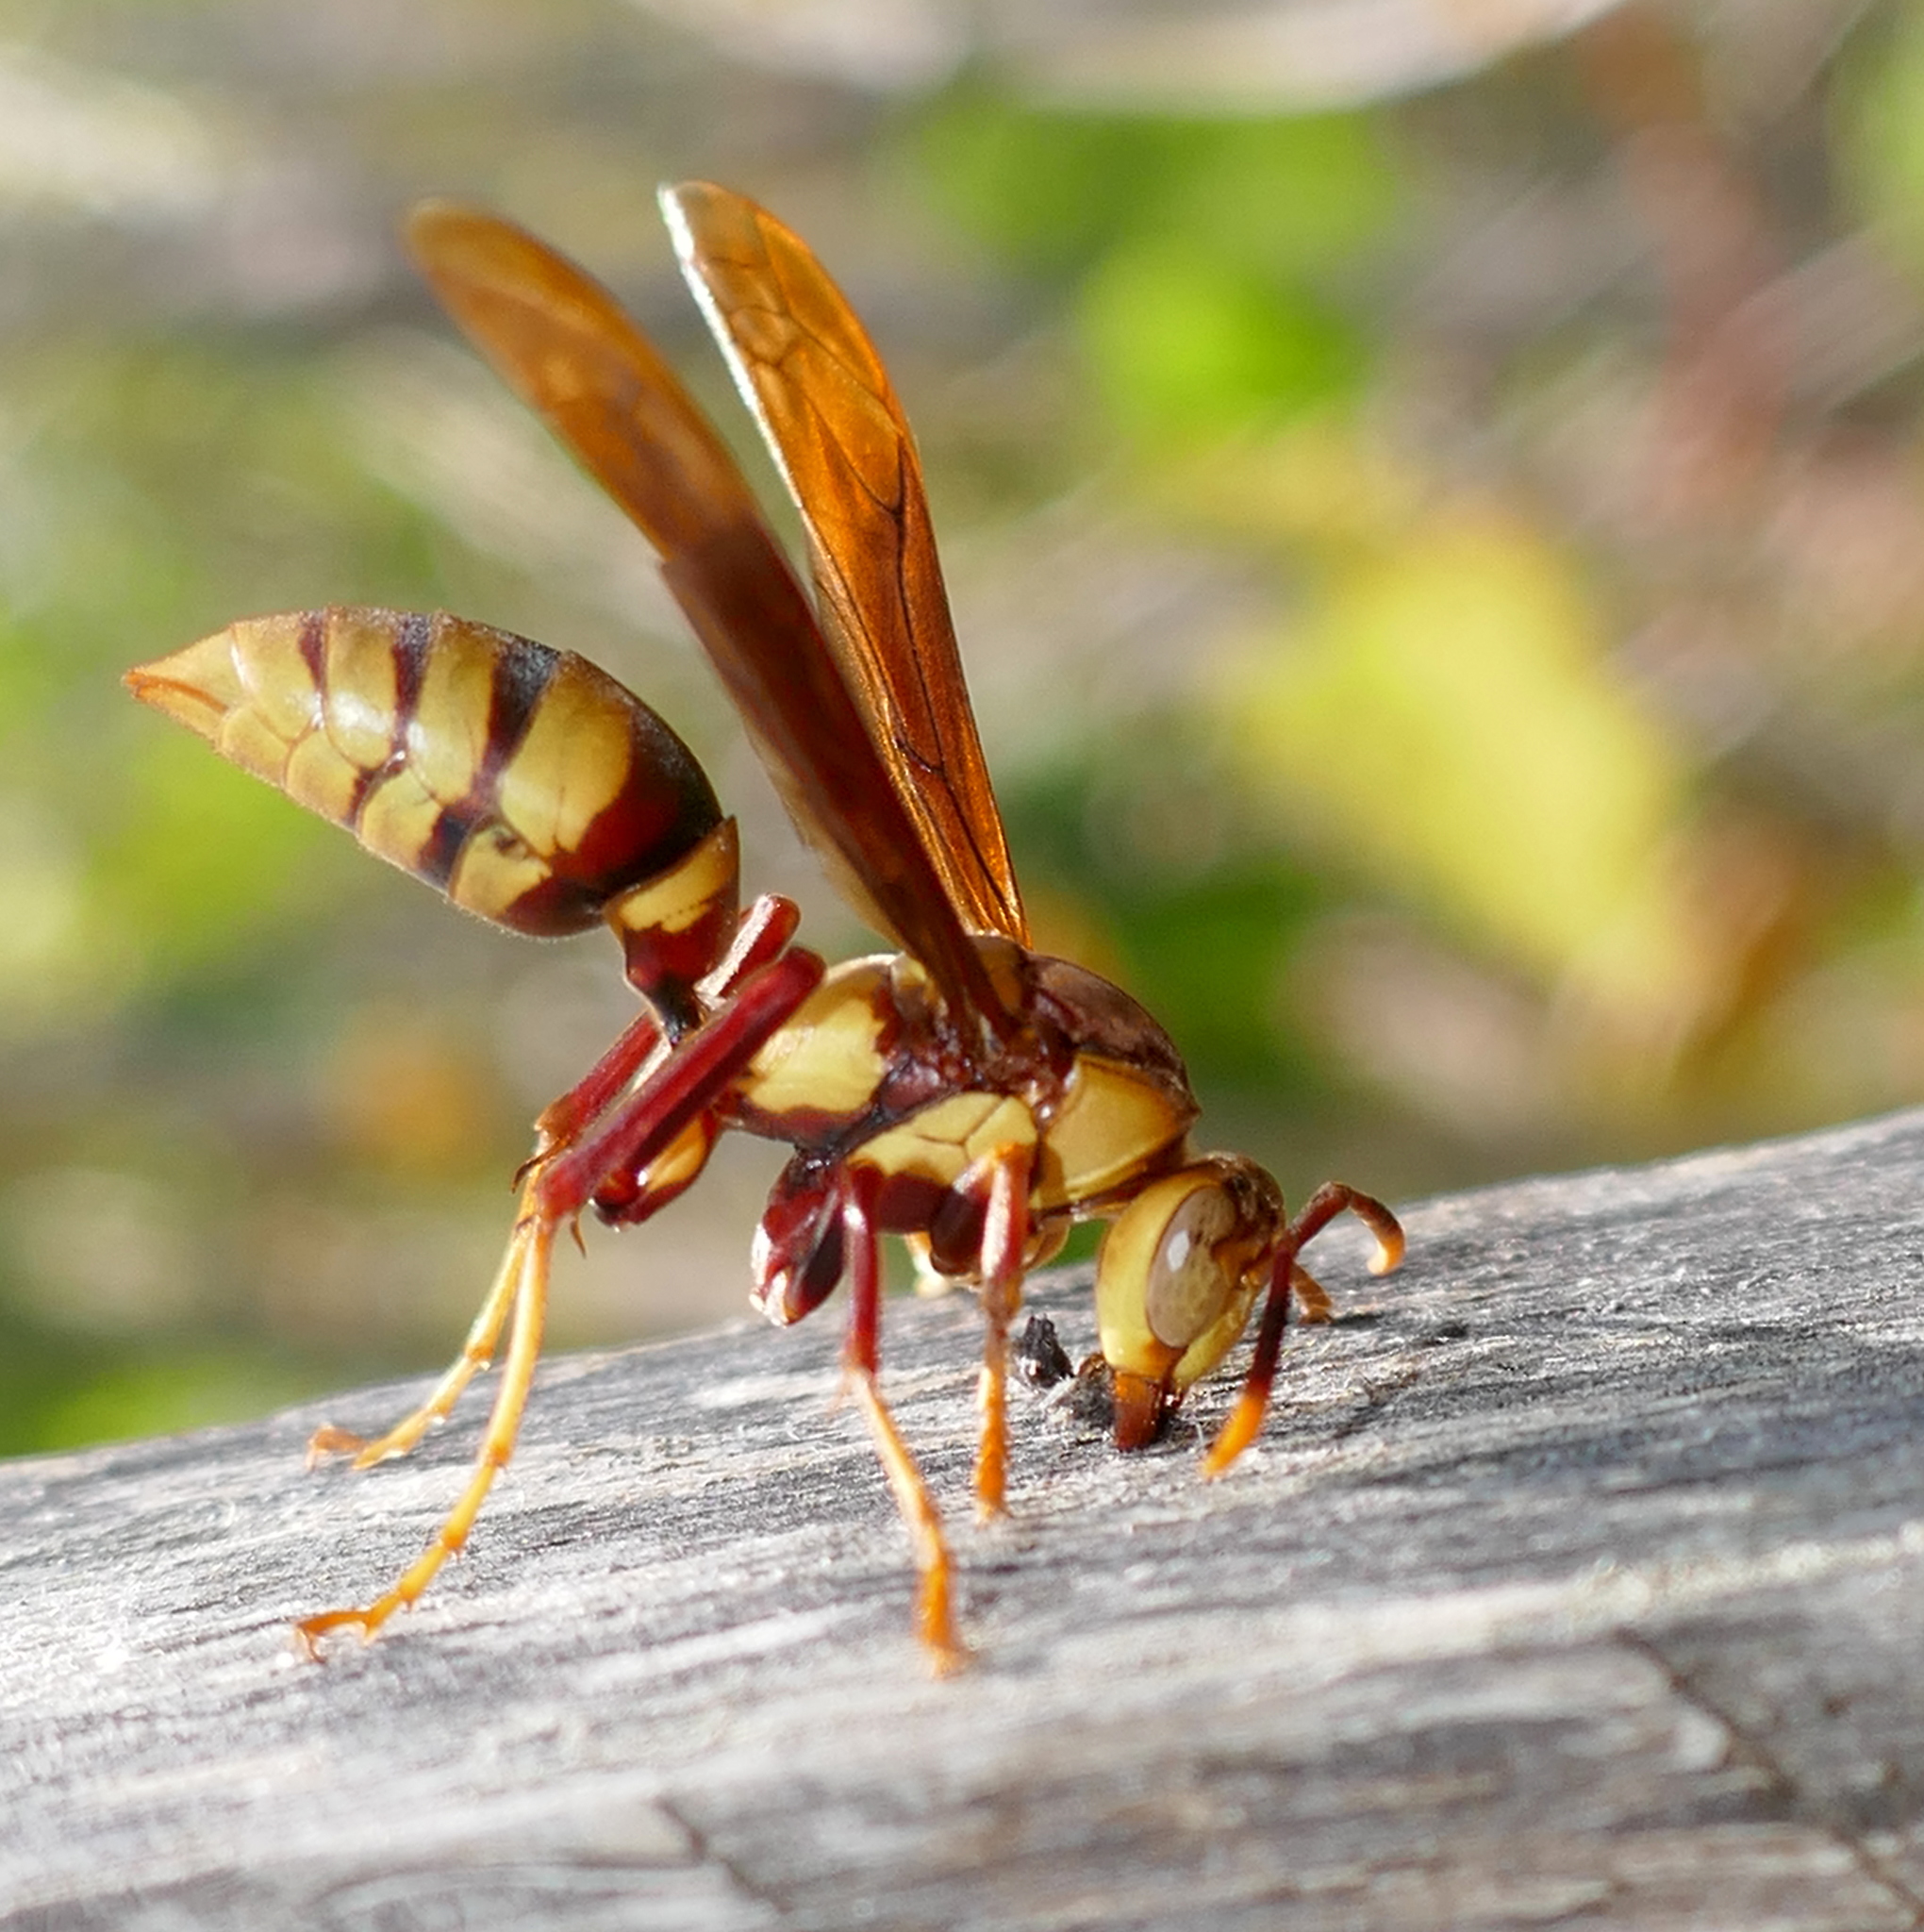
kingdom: Animalia
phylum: Arthropoda
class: Insecta
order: Hymenoptera
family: Eumenidae
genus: Polistes
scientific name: Polistes major
